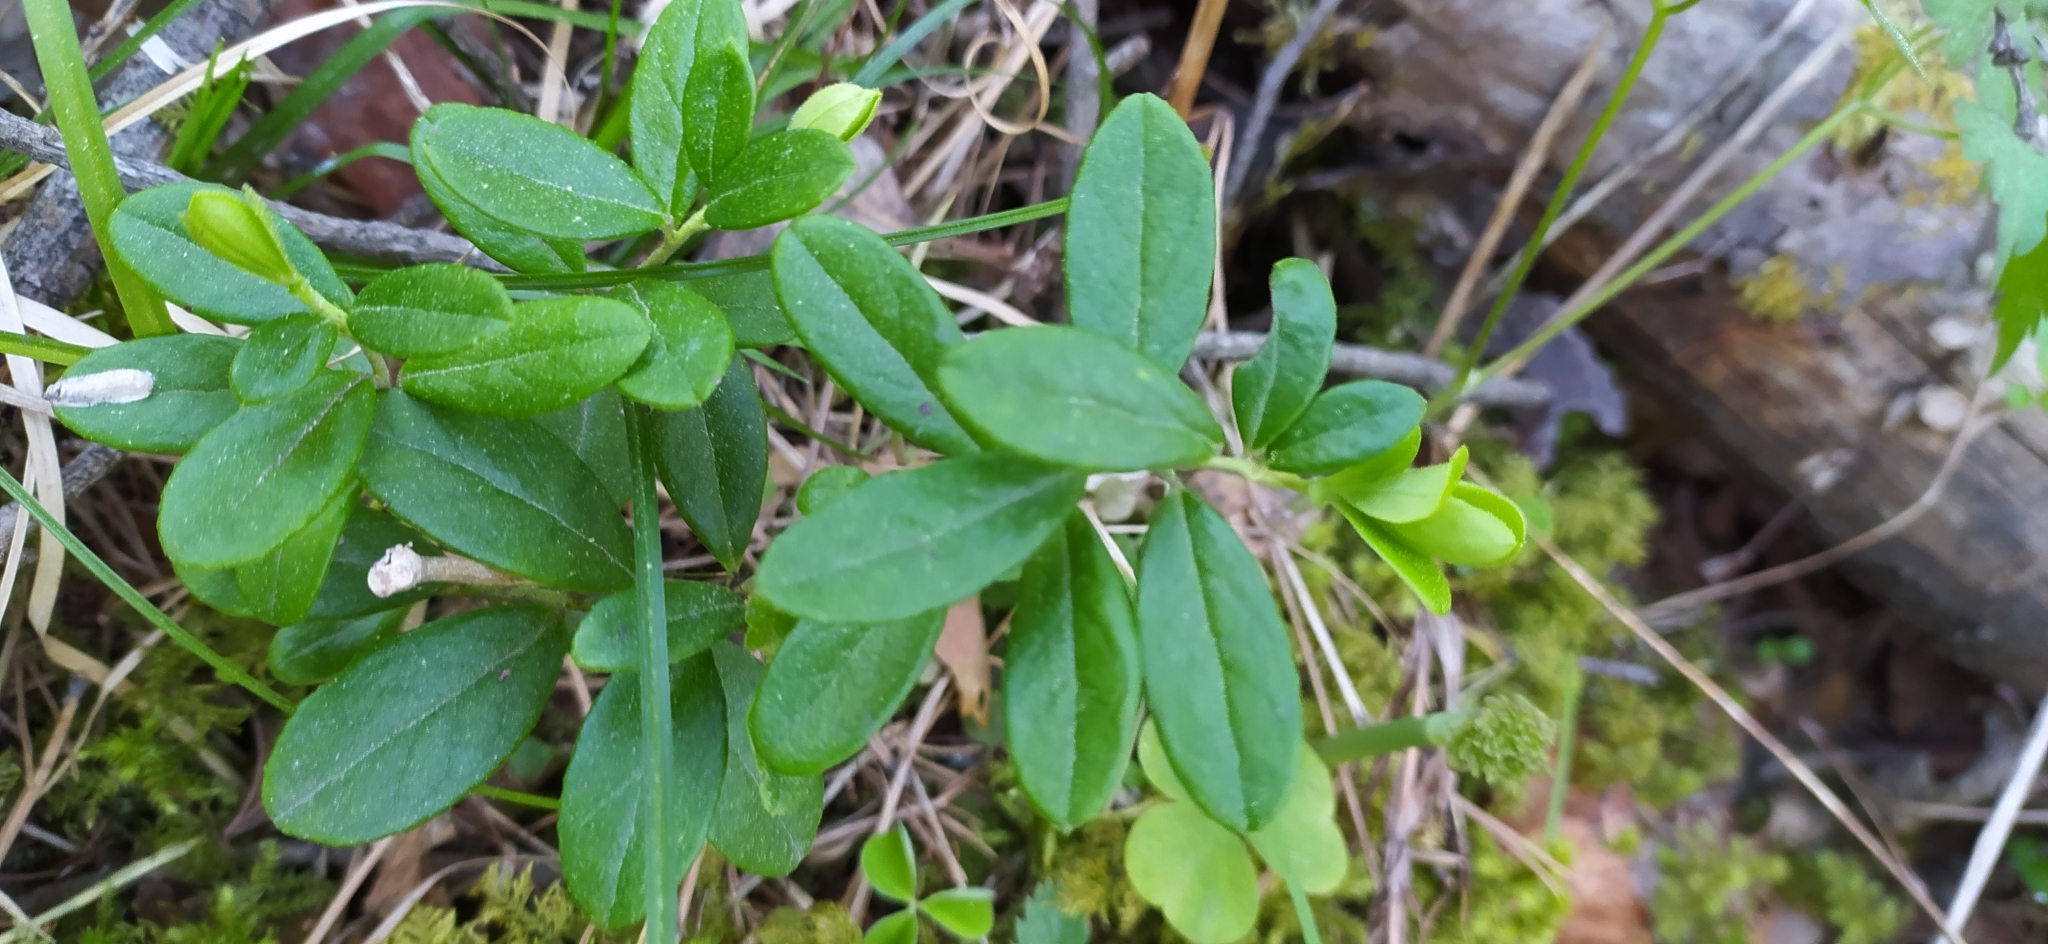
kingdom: Plantae
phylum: Tracheophyta
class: Magnoliopsida
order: Ericales
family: Ericaceae
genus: Vaccinium
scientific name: Vaccinium vitis-idaea
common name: Cowberry
